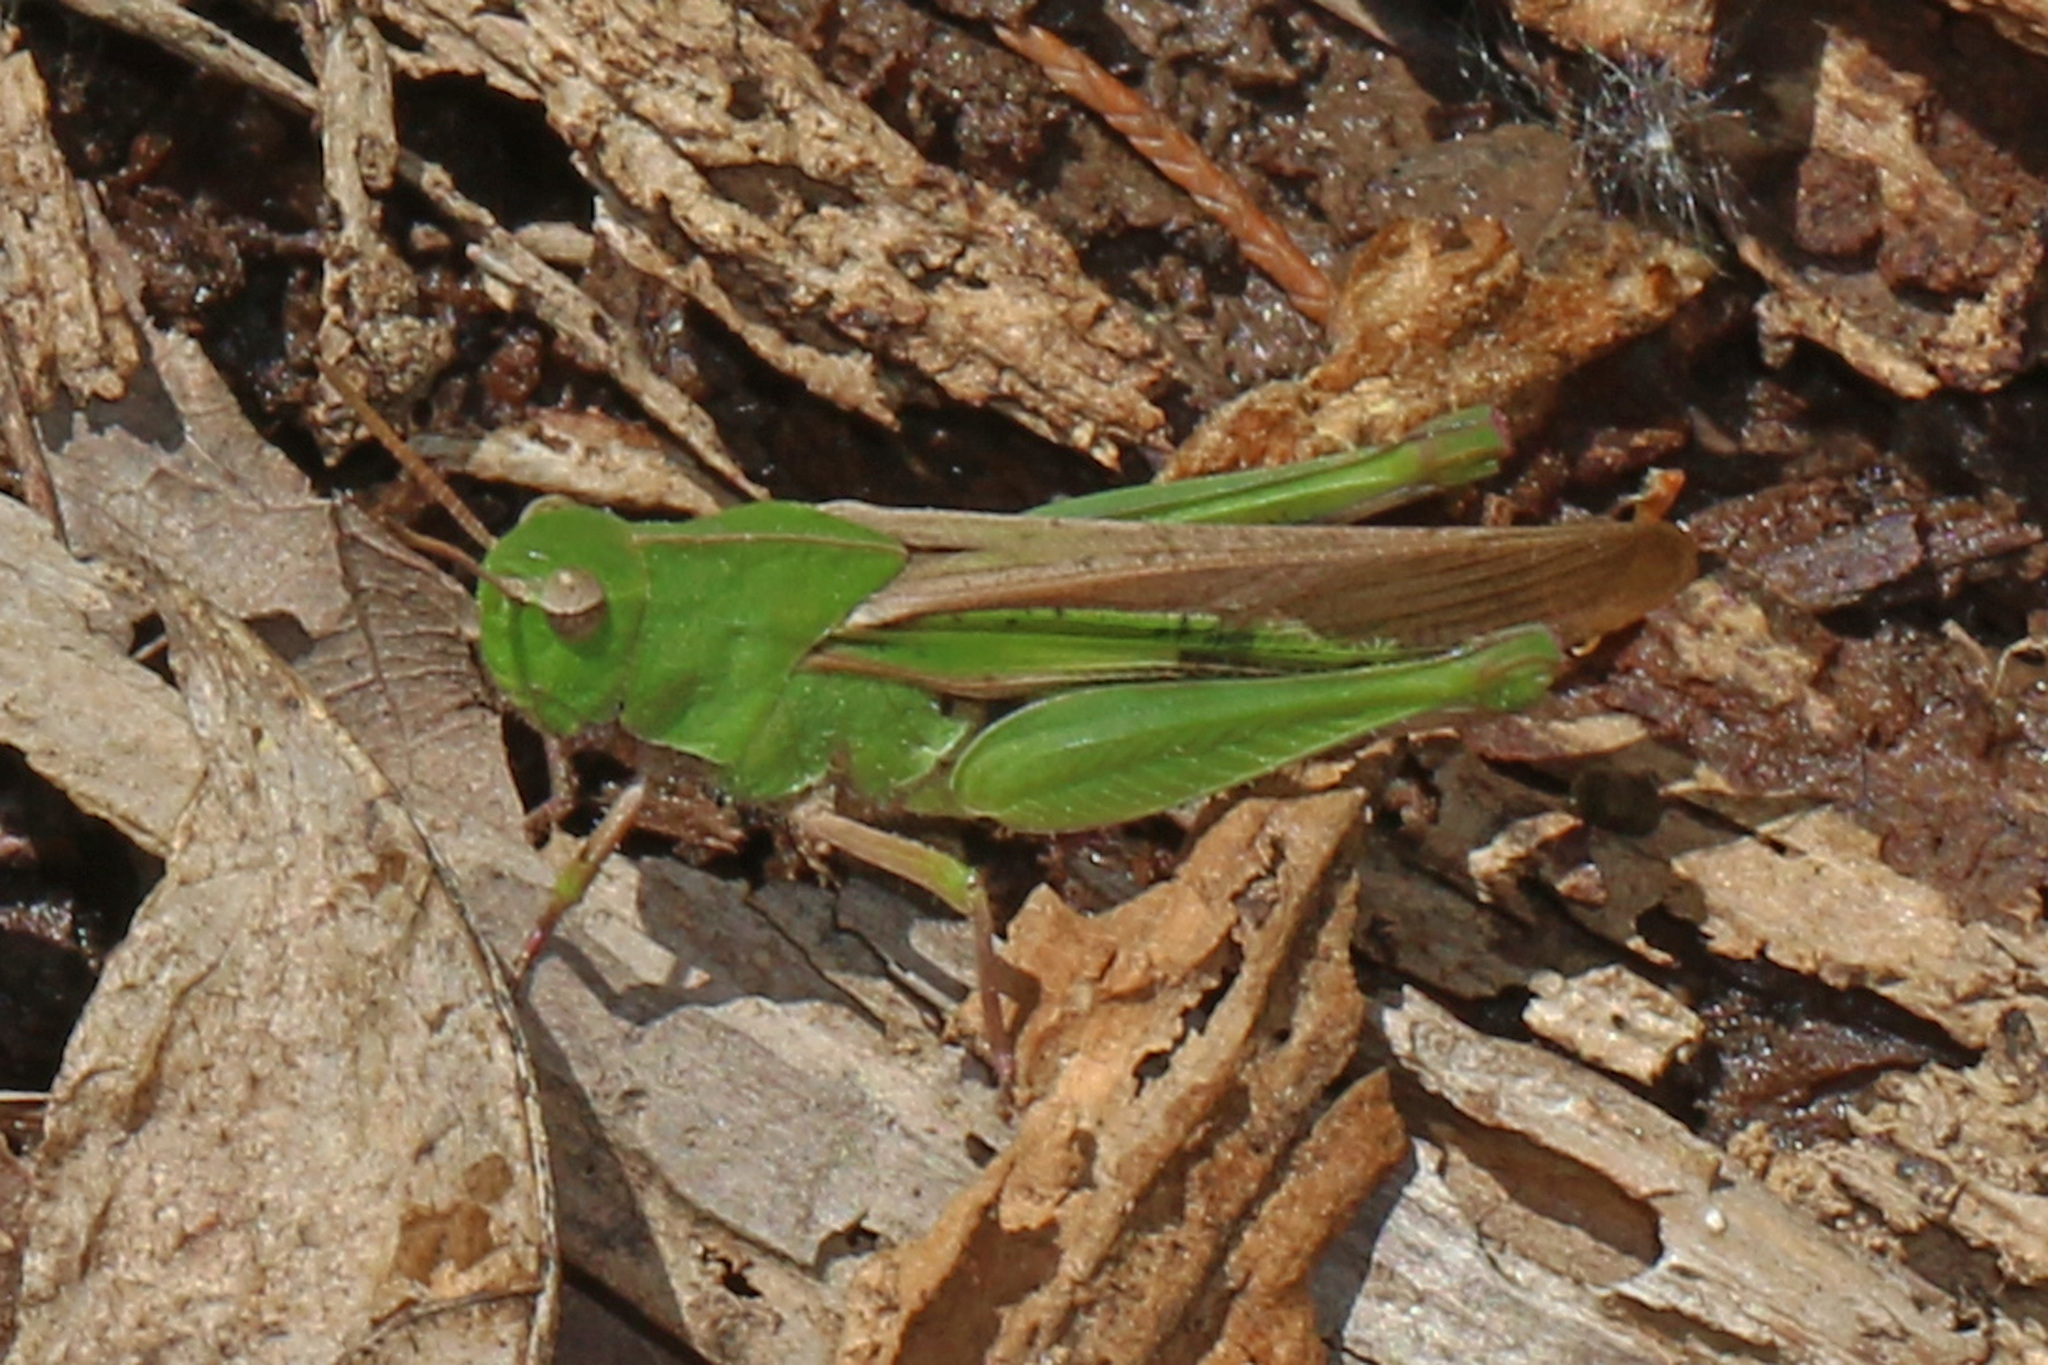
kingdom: Animalia
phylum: Arthropoda
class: Insecta
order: Orthoptera
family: Acrididae
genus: Chortophaga
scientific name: Chortophaga viridifasciata
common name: Green-striped grasshopper
